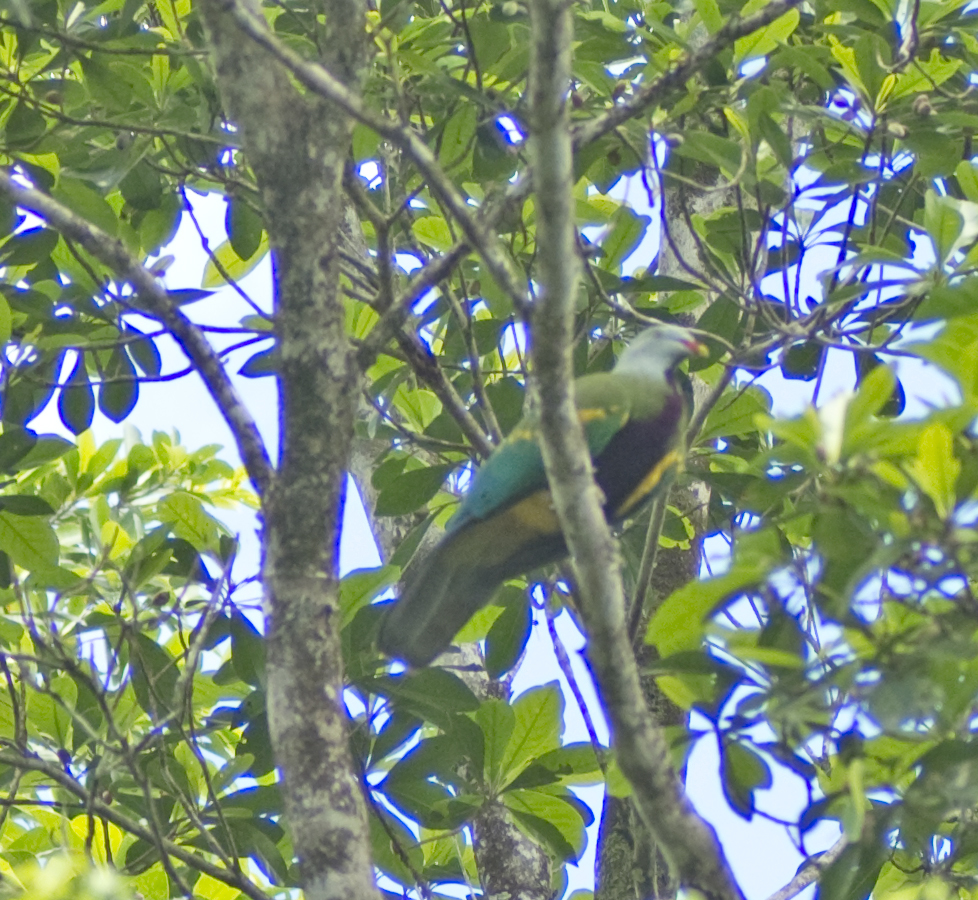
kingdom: Animalia
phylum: Chordata
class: Aves
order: Columbiformes
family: Columbidae
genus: Ptilinopus
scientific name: Ptilinopus magnificus
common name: Wompoo fruit dove
